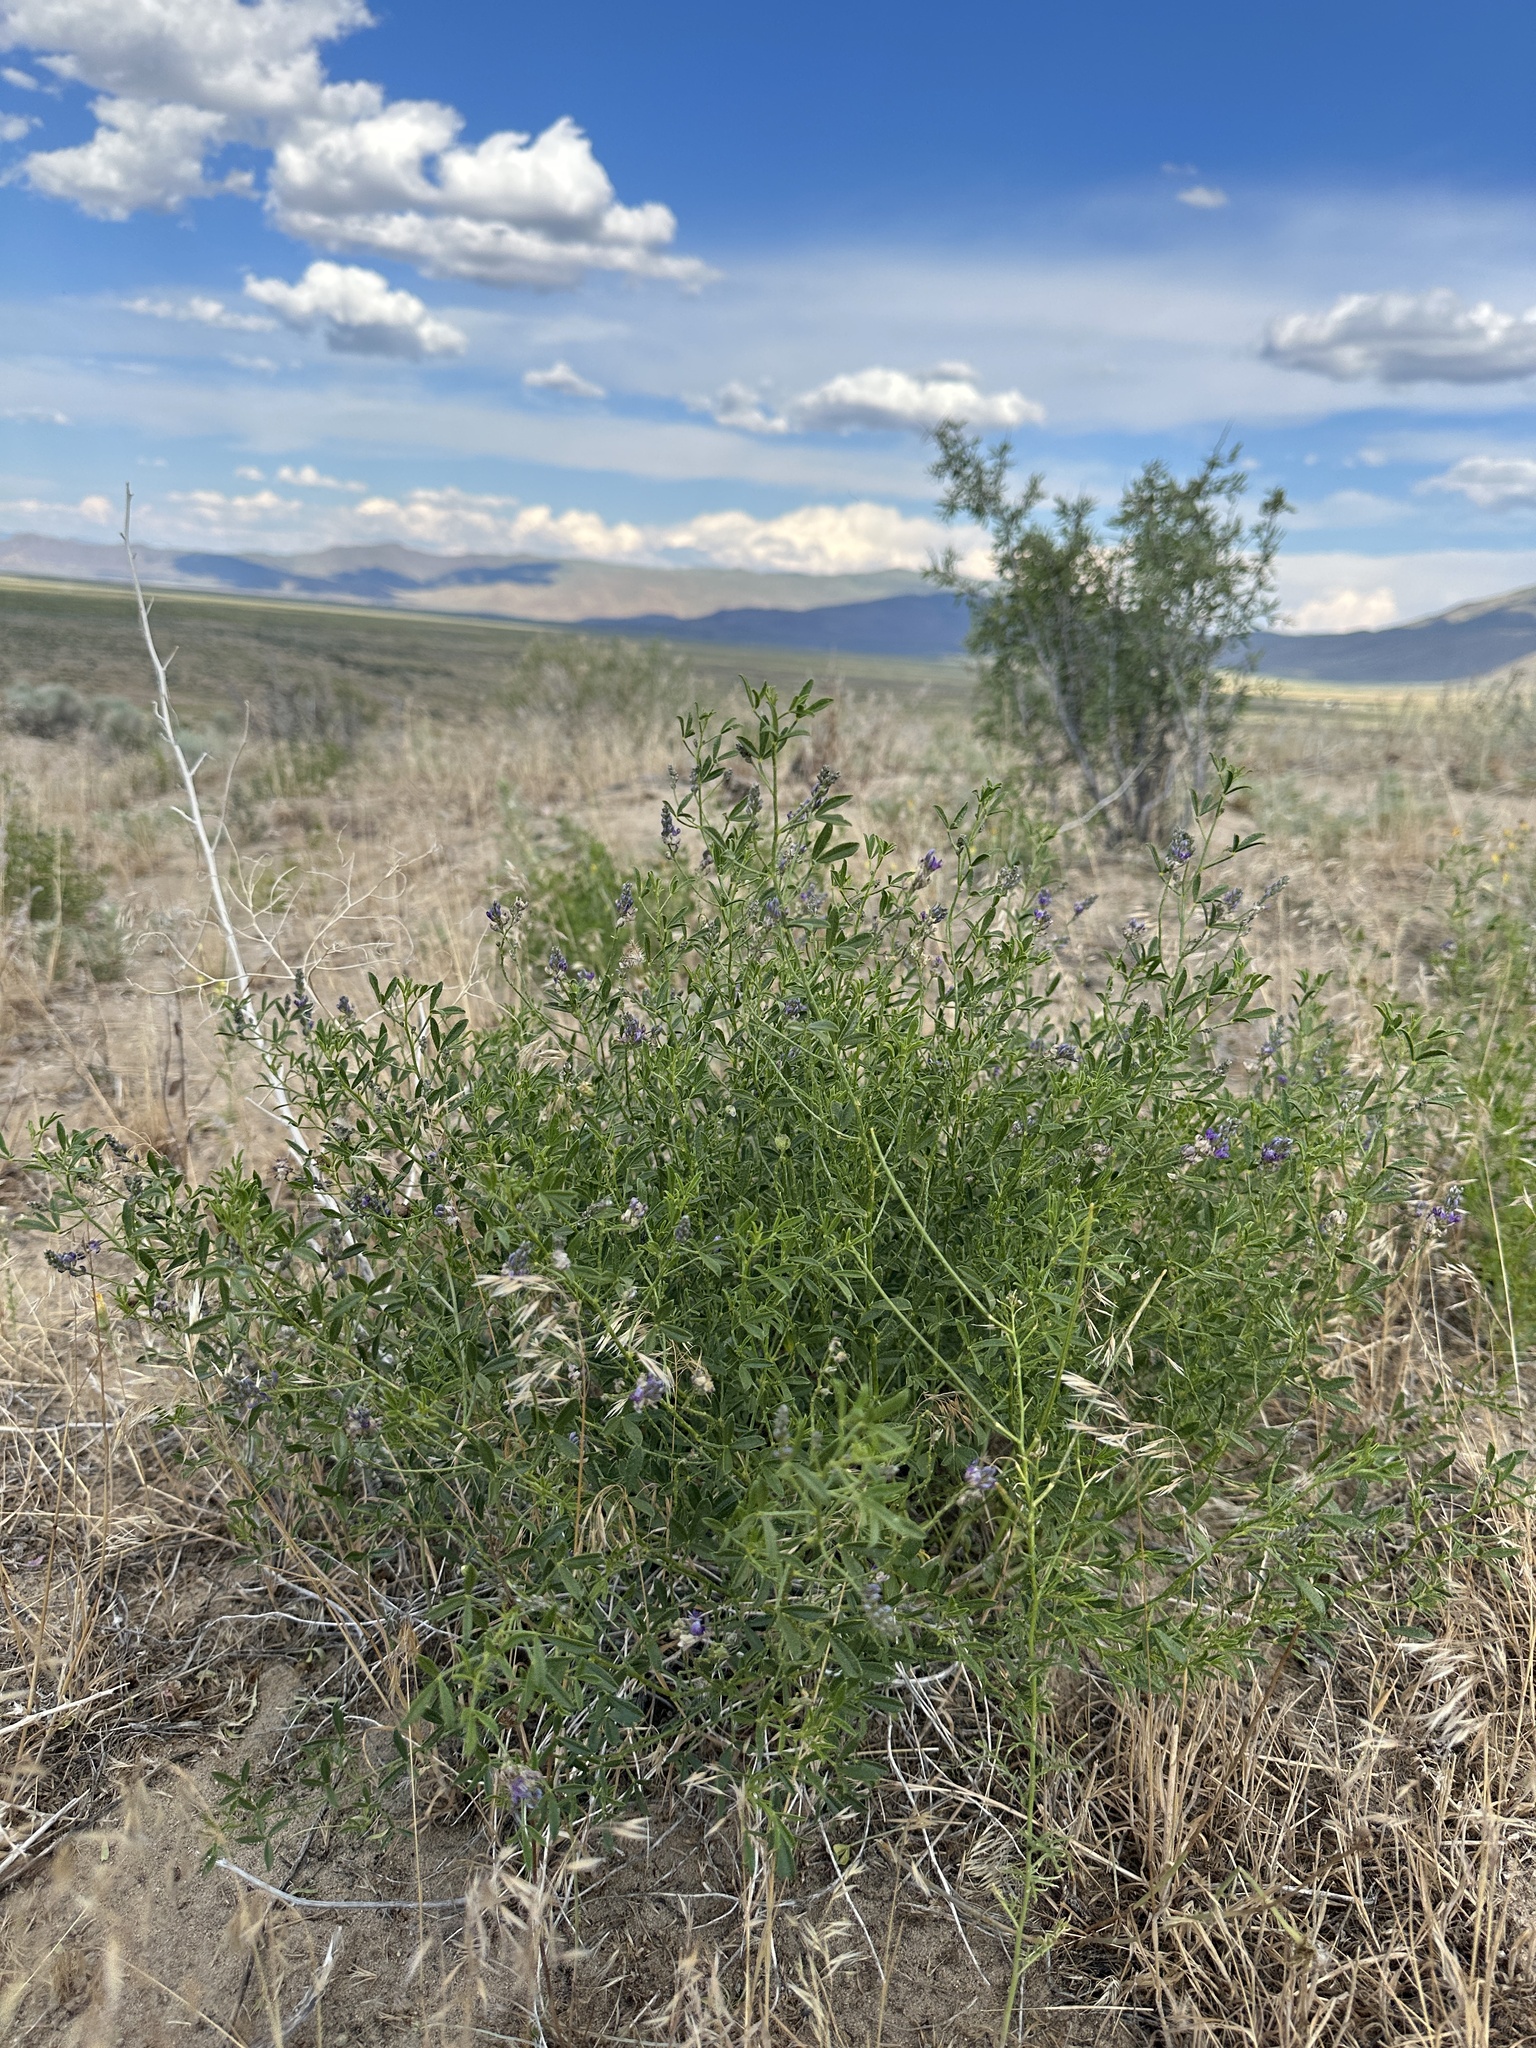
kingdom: Plantae
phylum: Tracheophyta
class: Magnoliopsida
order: Fabales
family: Fabaceae
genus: Ladeania
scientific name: Ladeania lanceolata
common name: Dune scurf-pea
